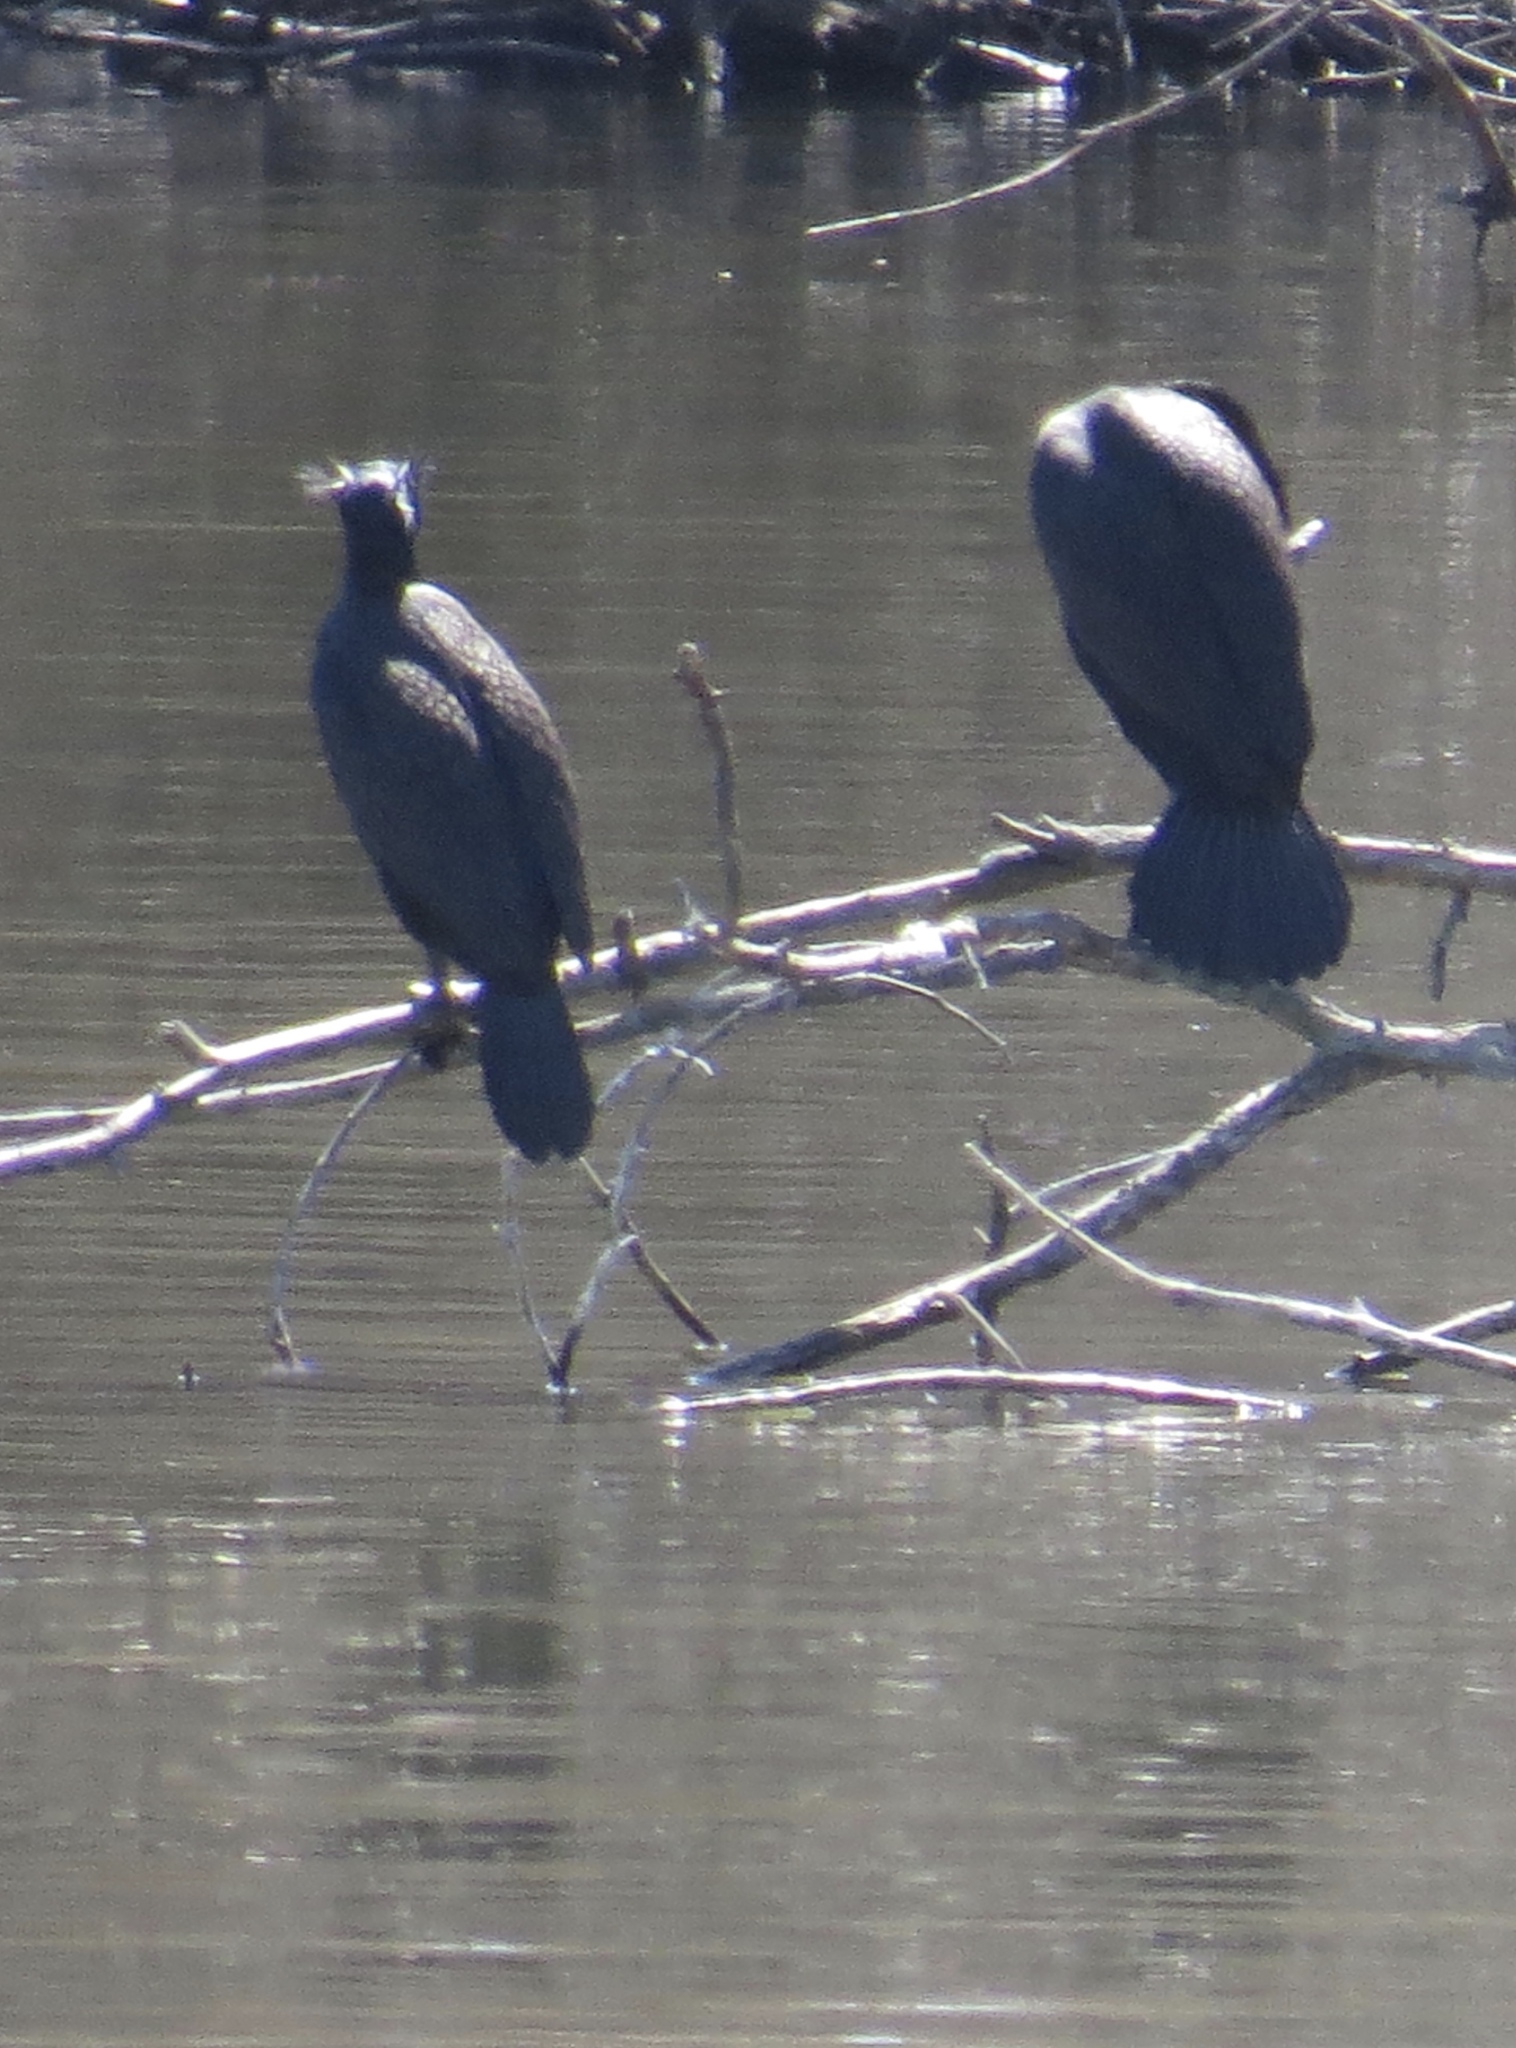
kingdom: Animalia
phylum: Chordata
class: Aves
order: Suliformes
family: Phalacrocoracidae
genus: Phalacrocorax
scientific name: Phalacrocorax auritus
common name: Double-crested cormorant
